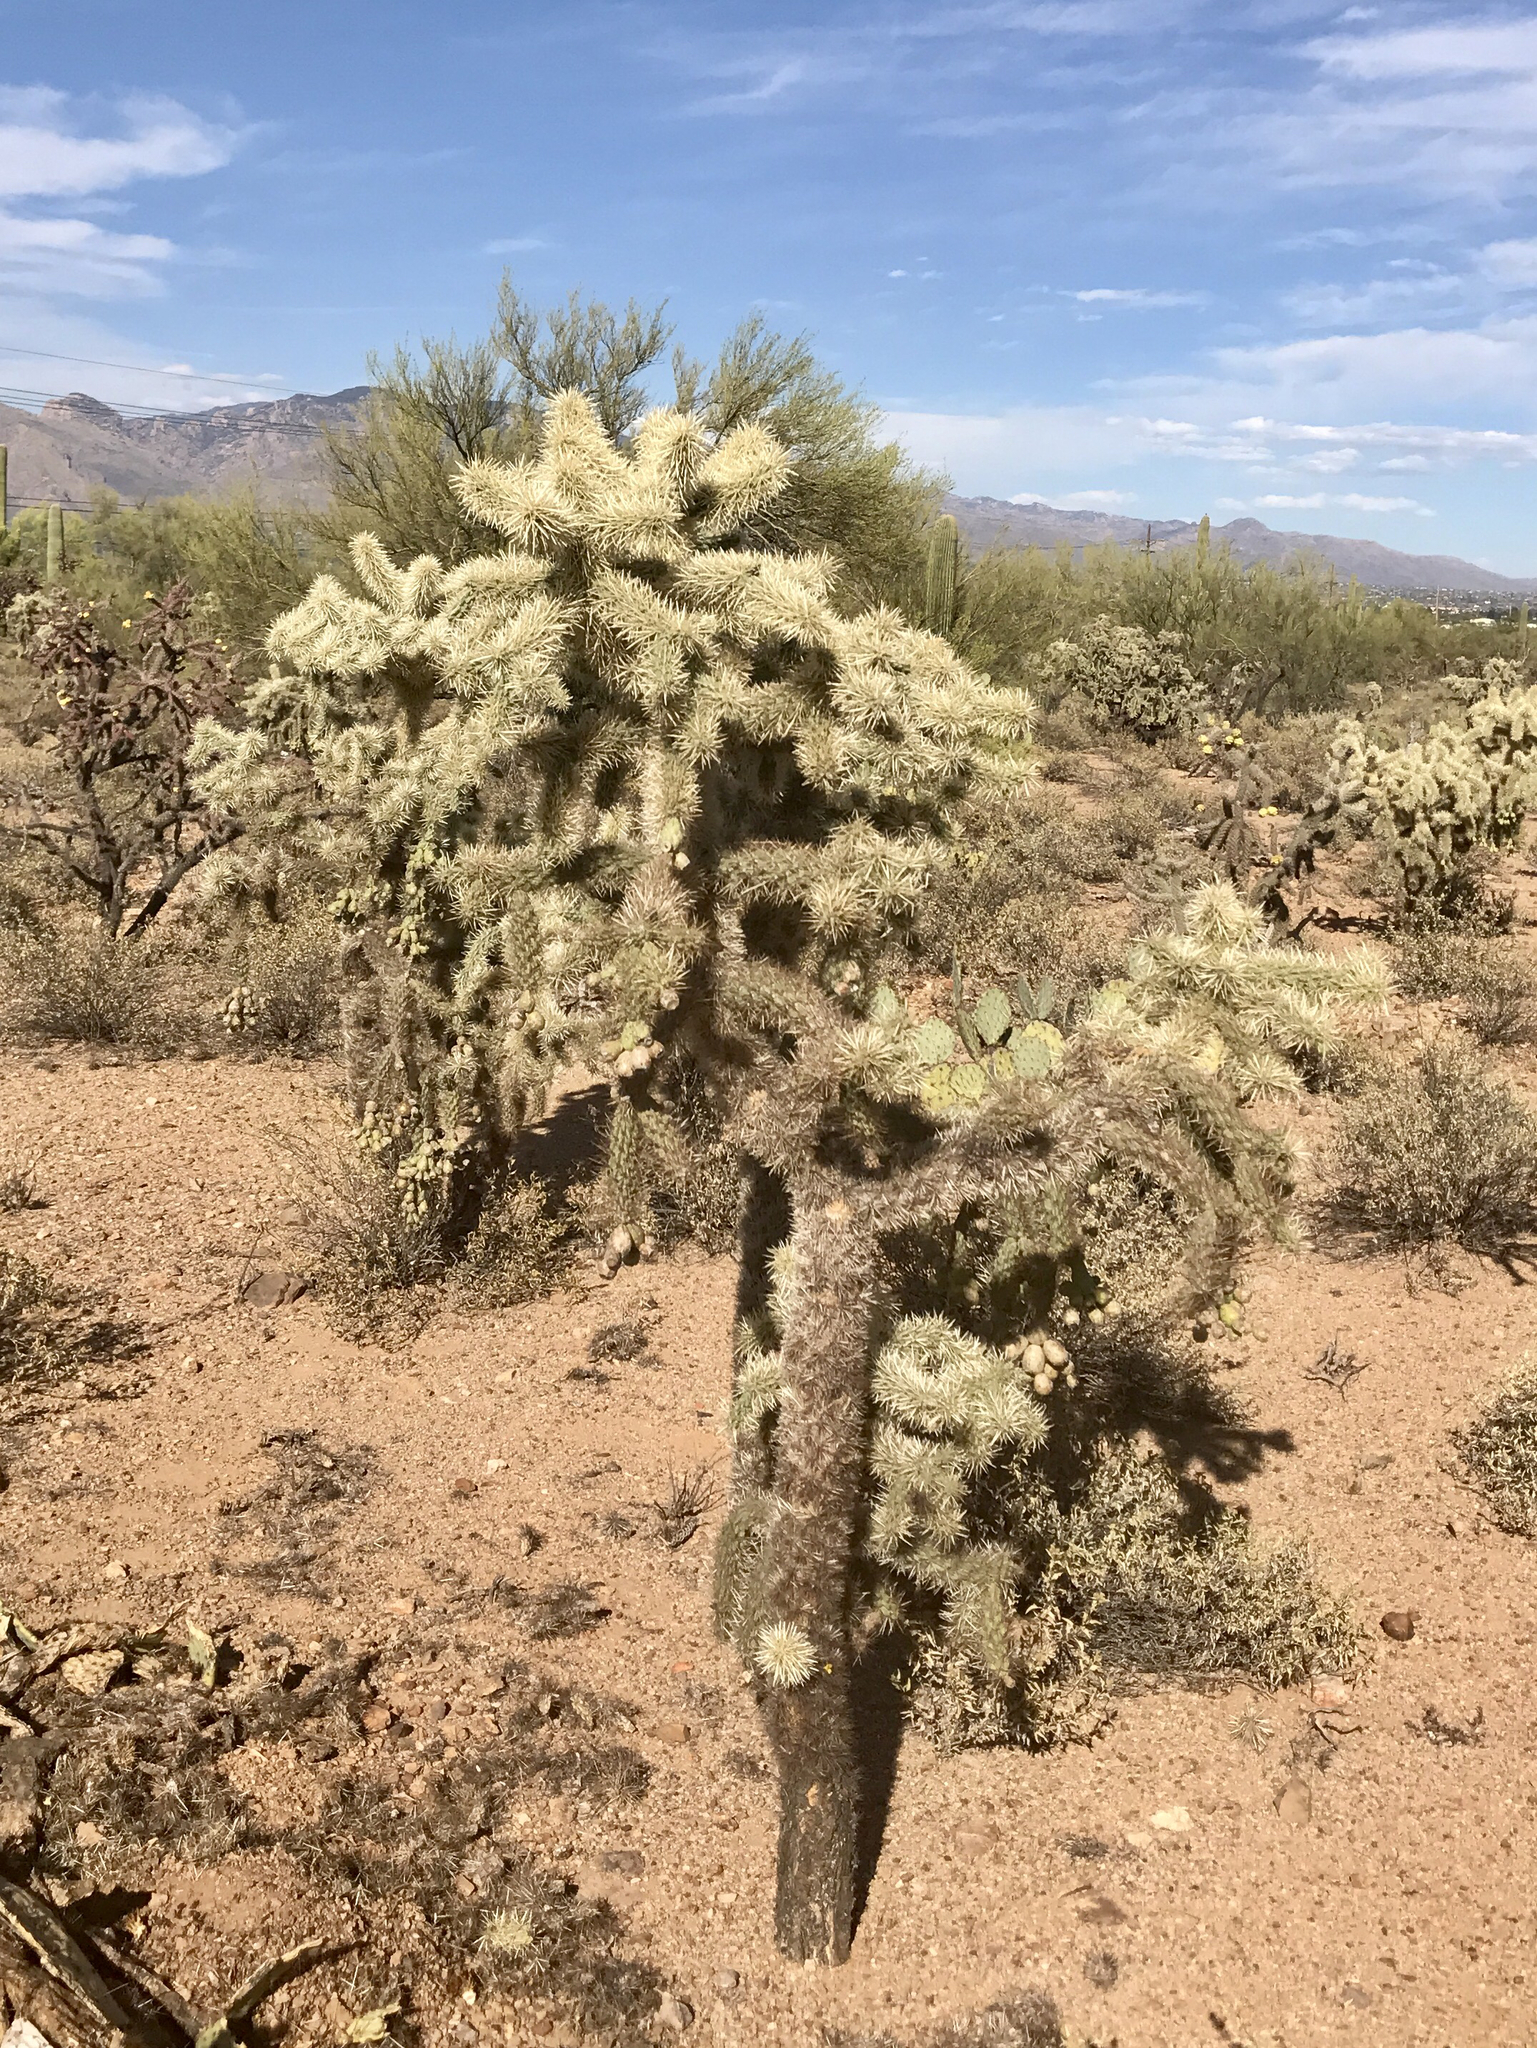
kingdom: Plantae
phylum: Tracheophyta
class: Magnoliopsida
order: Caryophyllales
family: Cactaceae
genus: Cylindropuntia
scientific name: Cylindropuntia fulgida
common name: Jumping cholla
